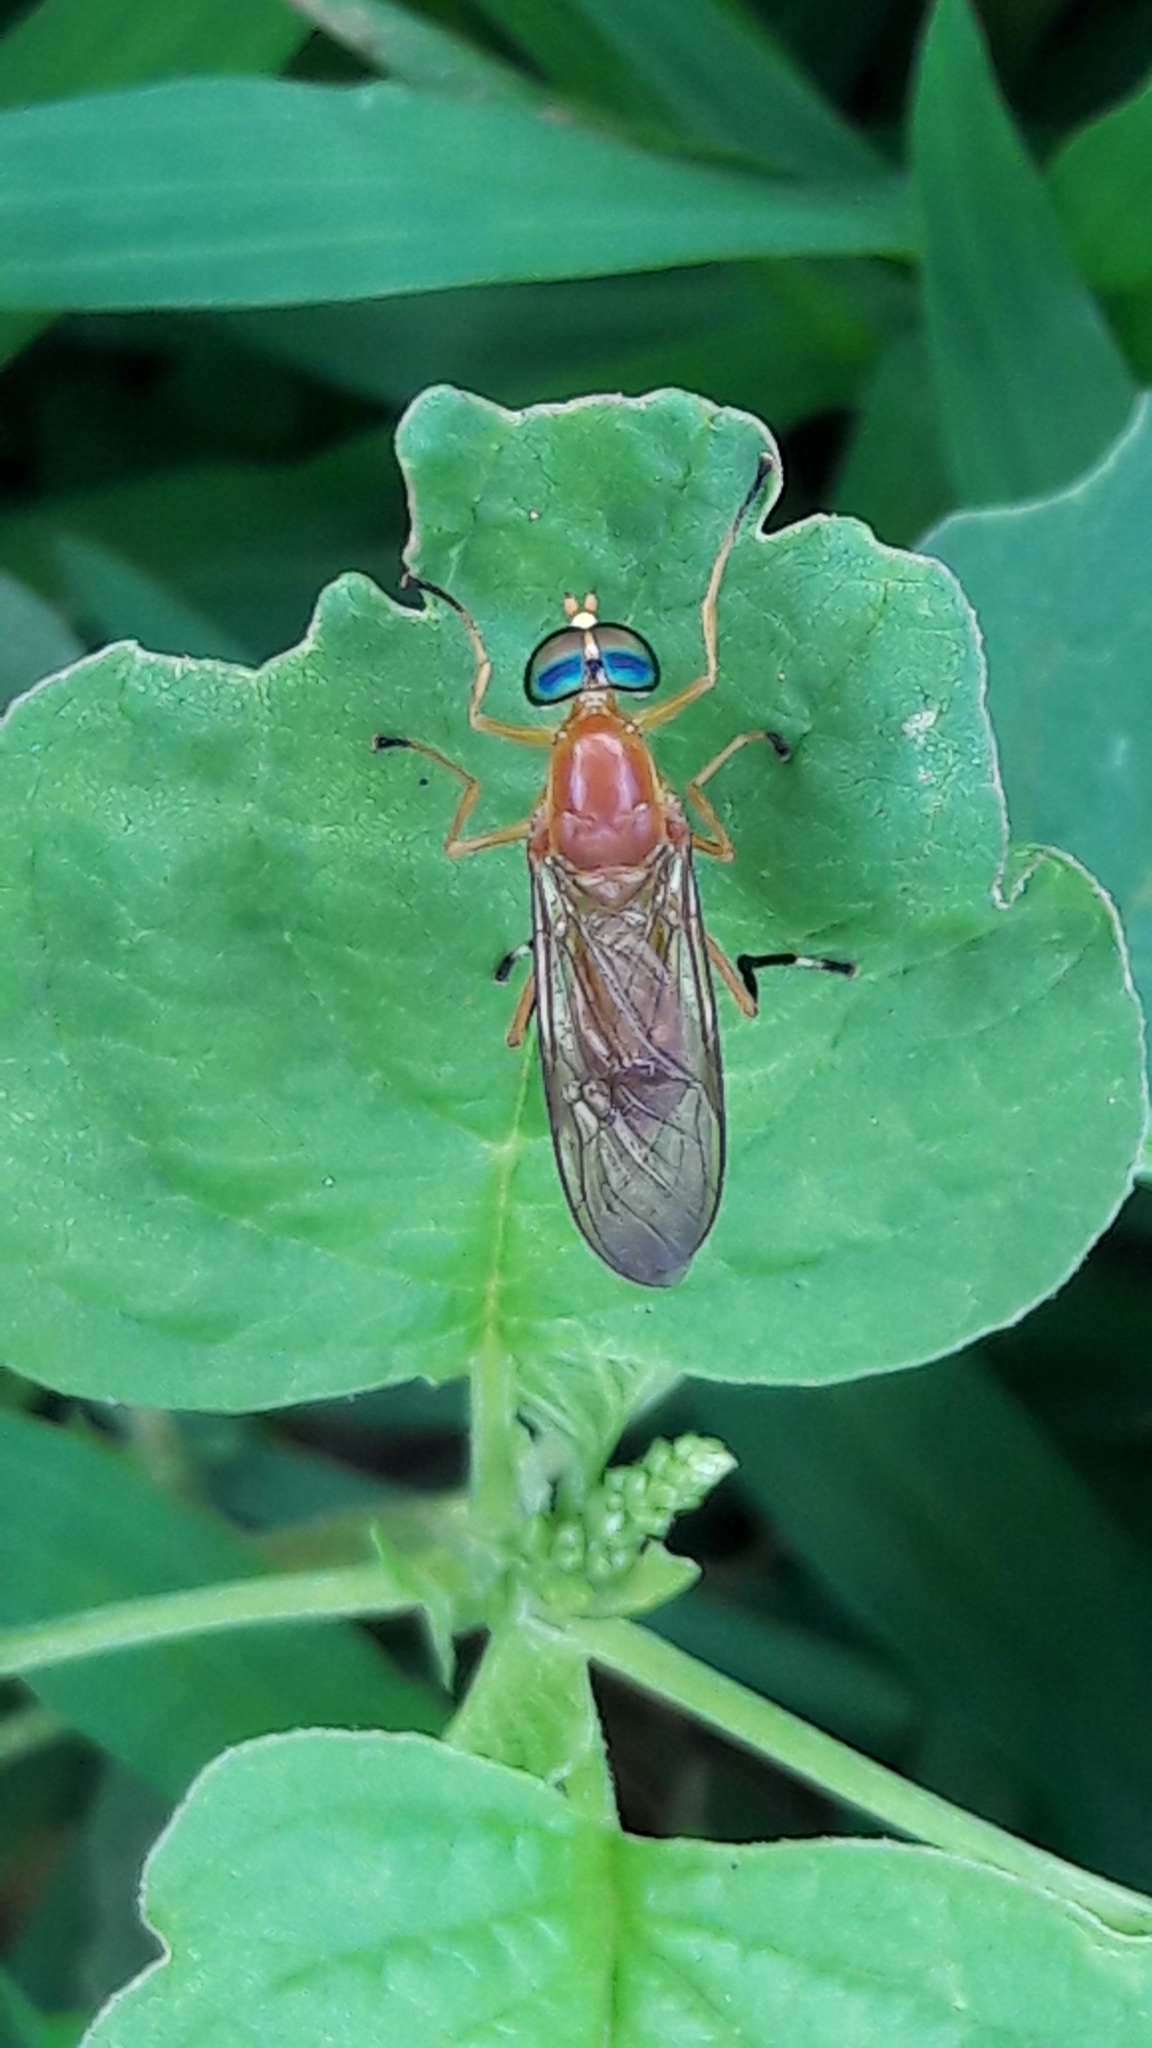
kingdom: Animalia
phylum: Arthropoda
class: Insecta
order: Diptera
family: Stratiomyidae
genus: Ptecticus
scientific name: Ptecticus testaceus
